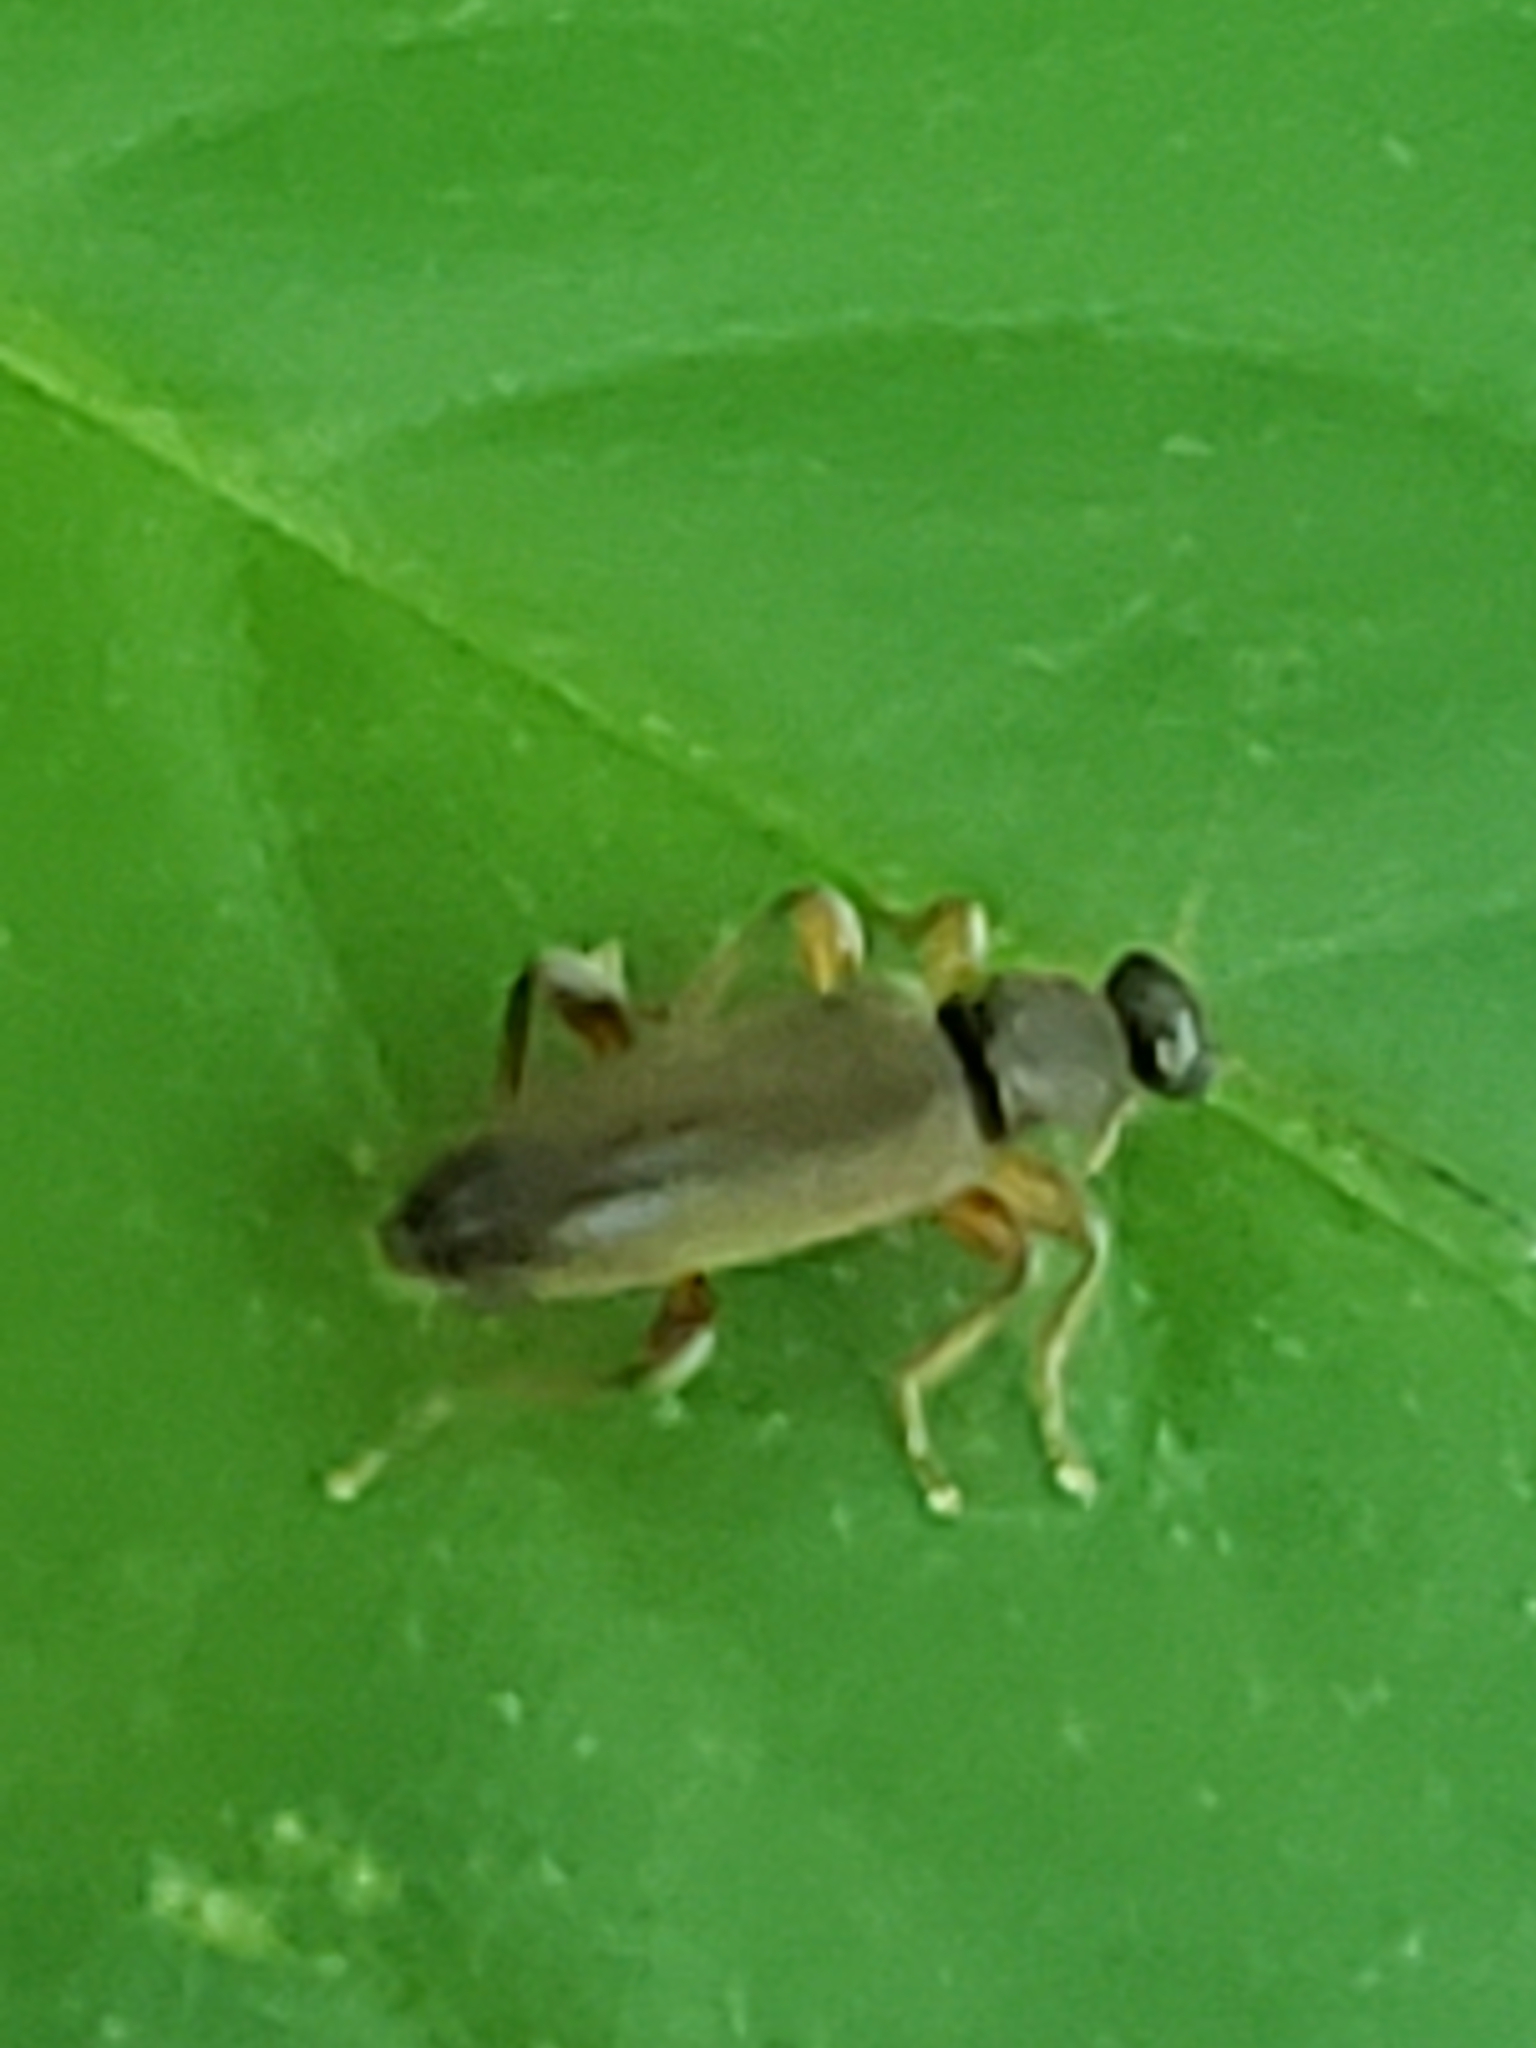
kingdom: Animalia
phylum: Arthropoda
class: Insecta
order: Coleoptera
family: Anthicidae
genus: Macratria
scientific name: Macratria murina
